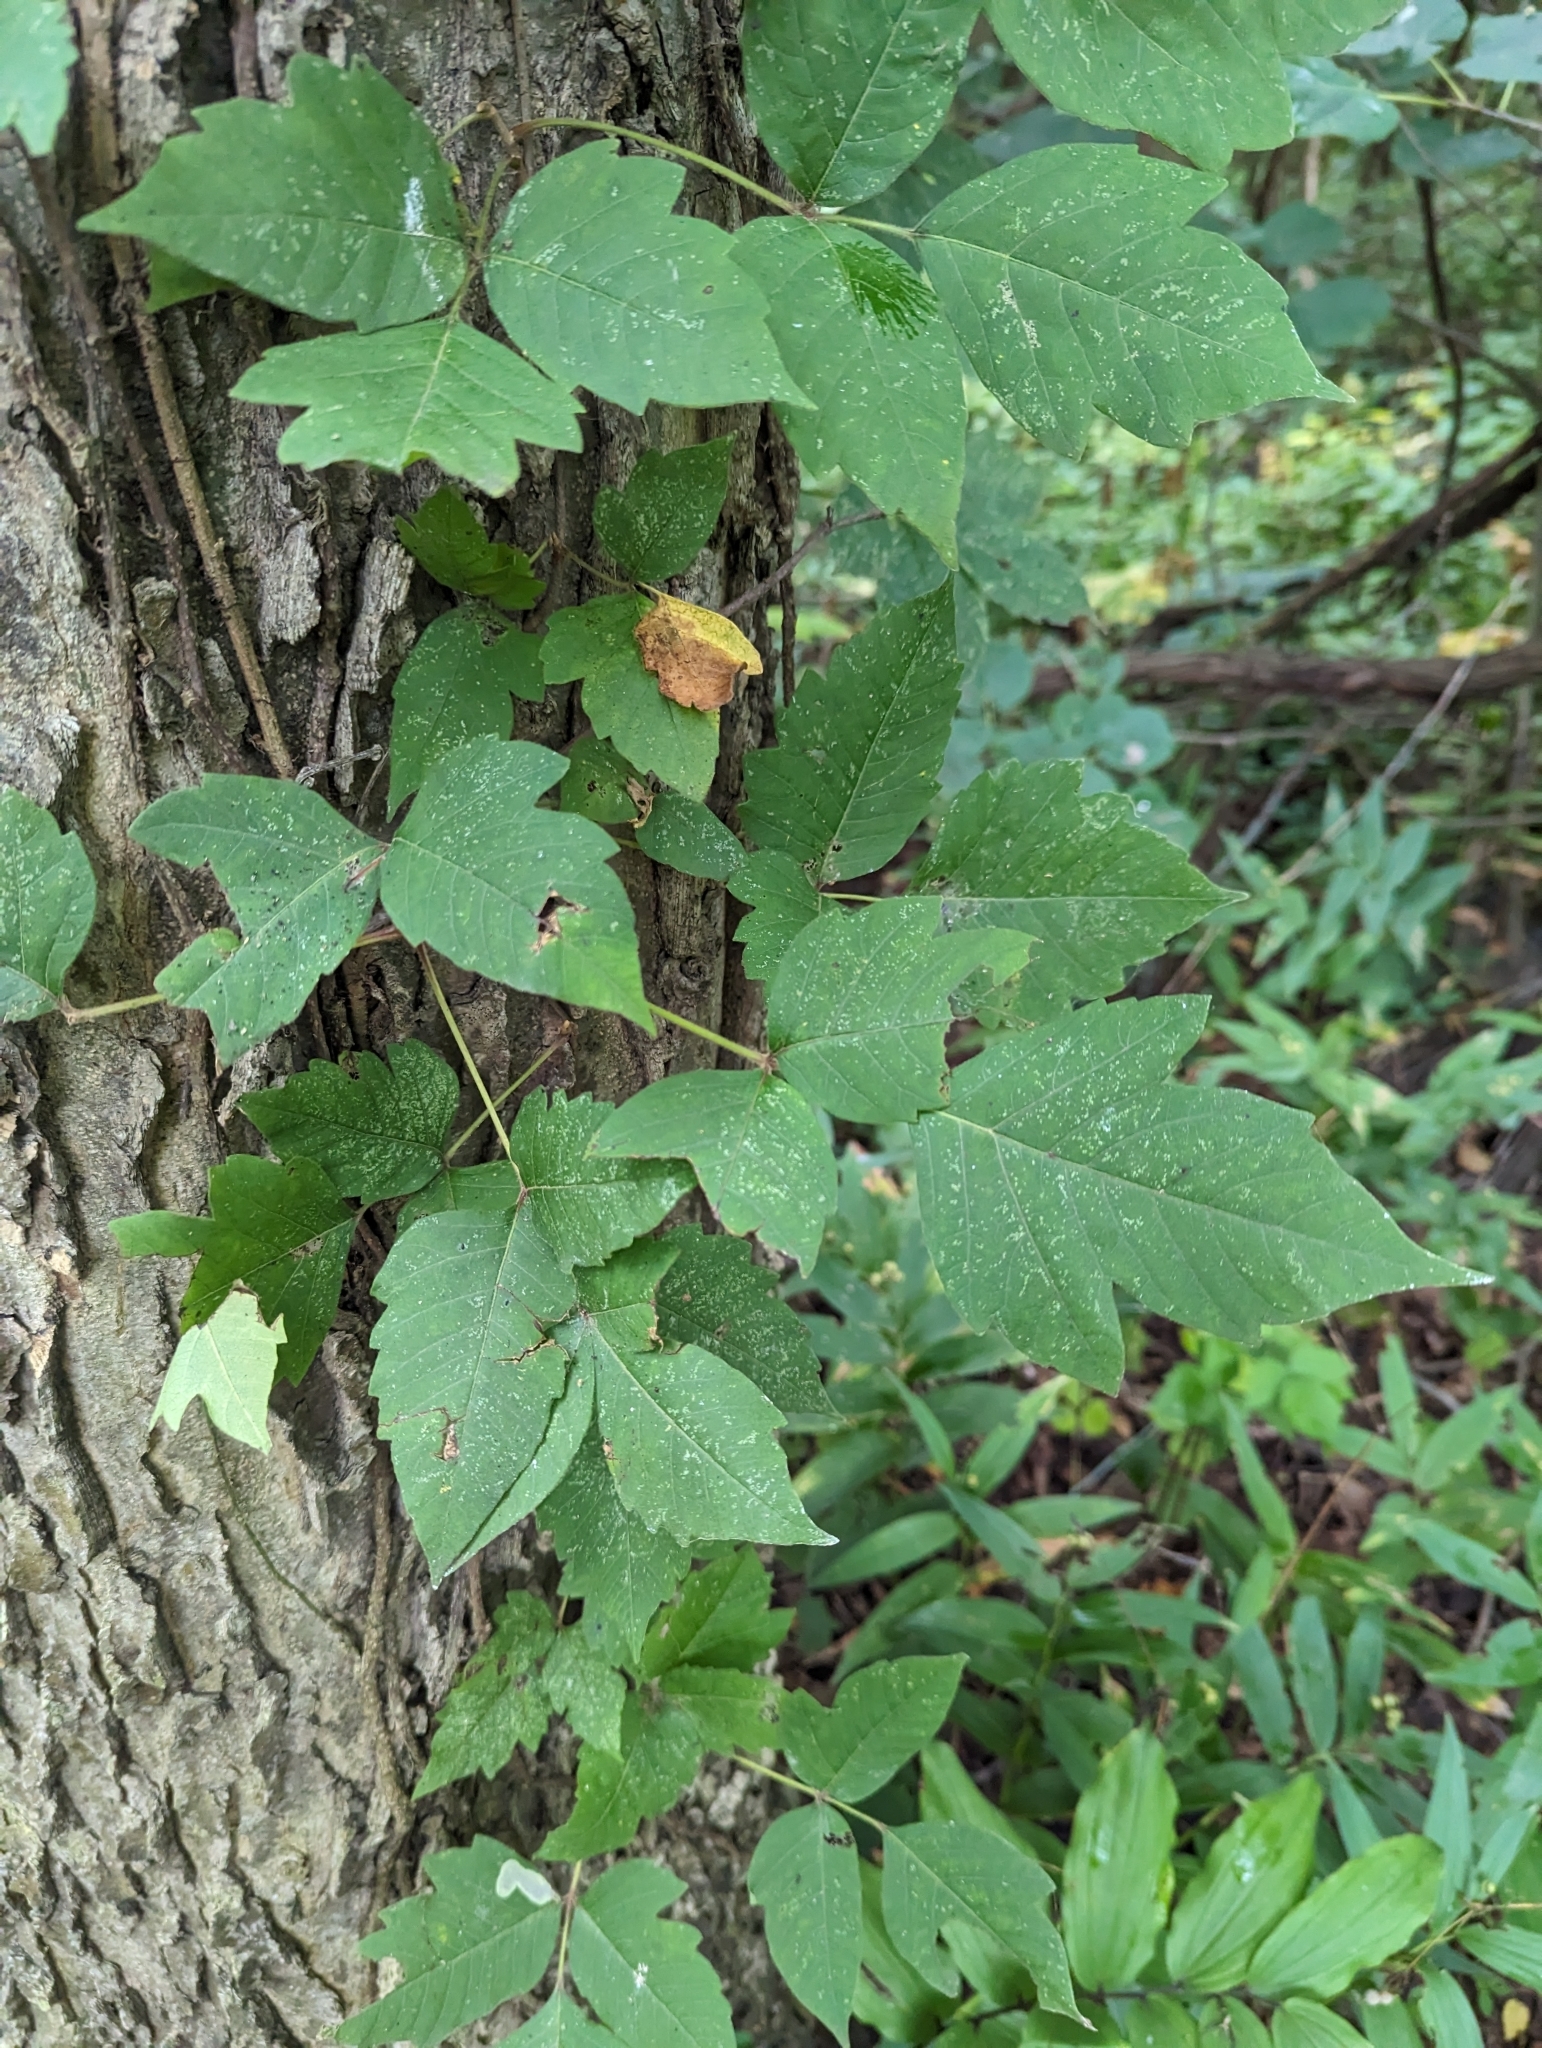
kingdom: Plantae
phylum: Tracheophyta
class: Magnoliopsida
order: Sapindales
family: Anacardiaceae
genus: Toxicodendron
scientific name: Toxicodendron radicans
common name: Poison ivy
